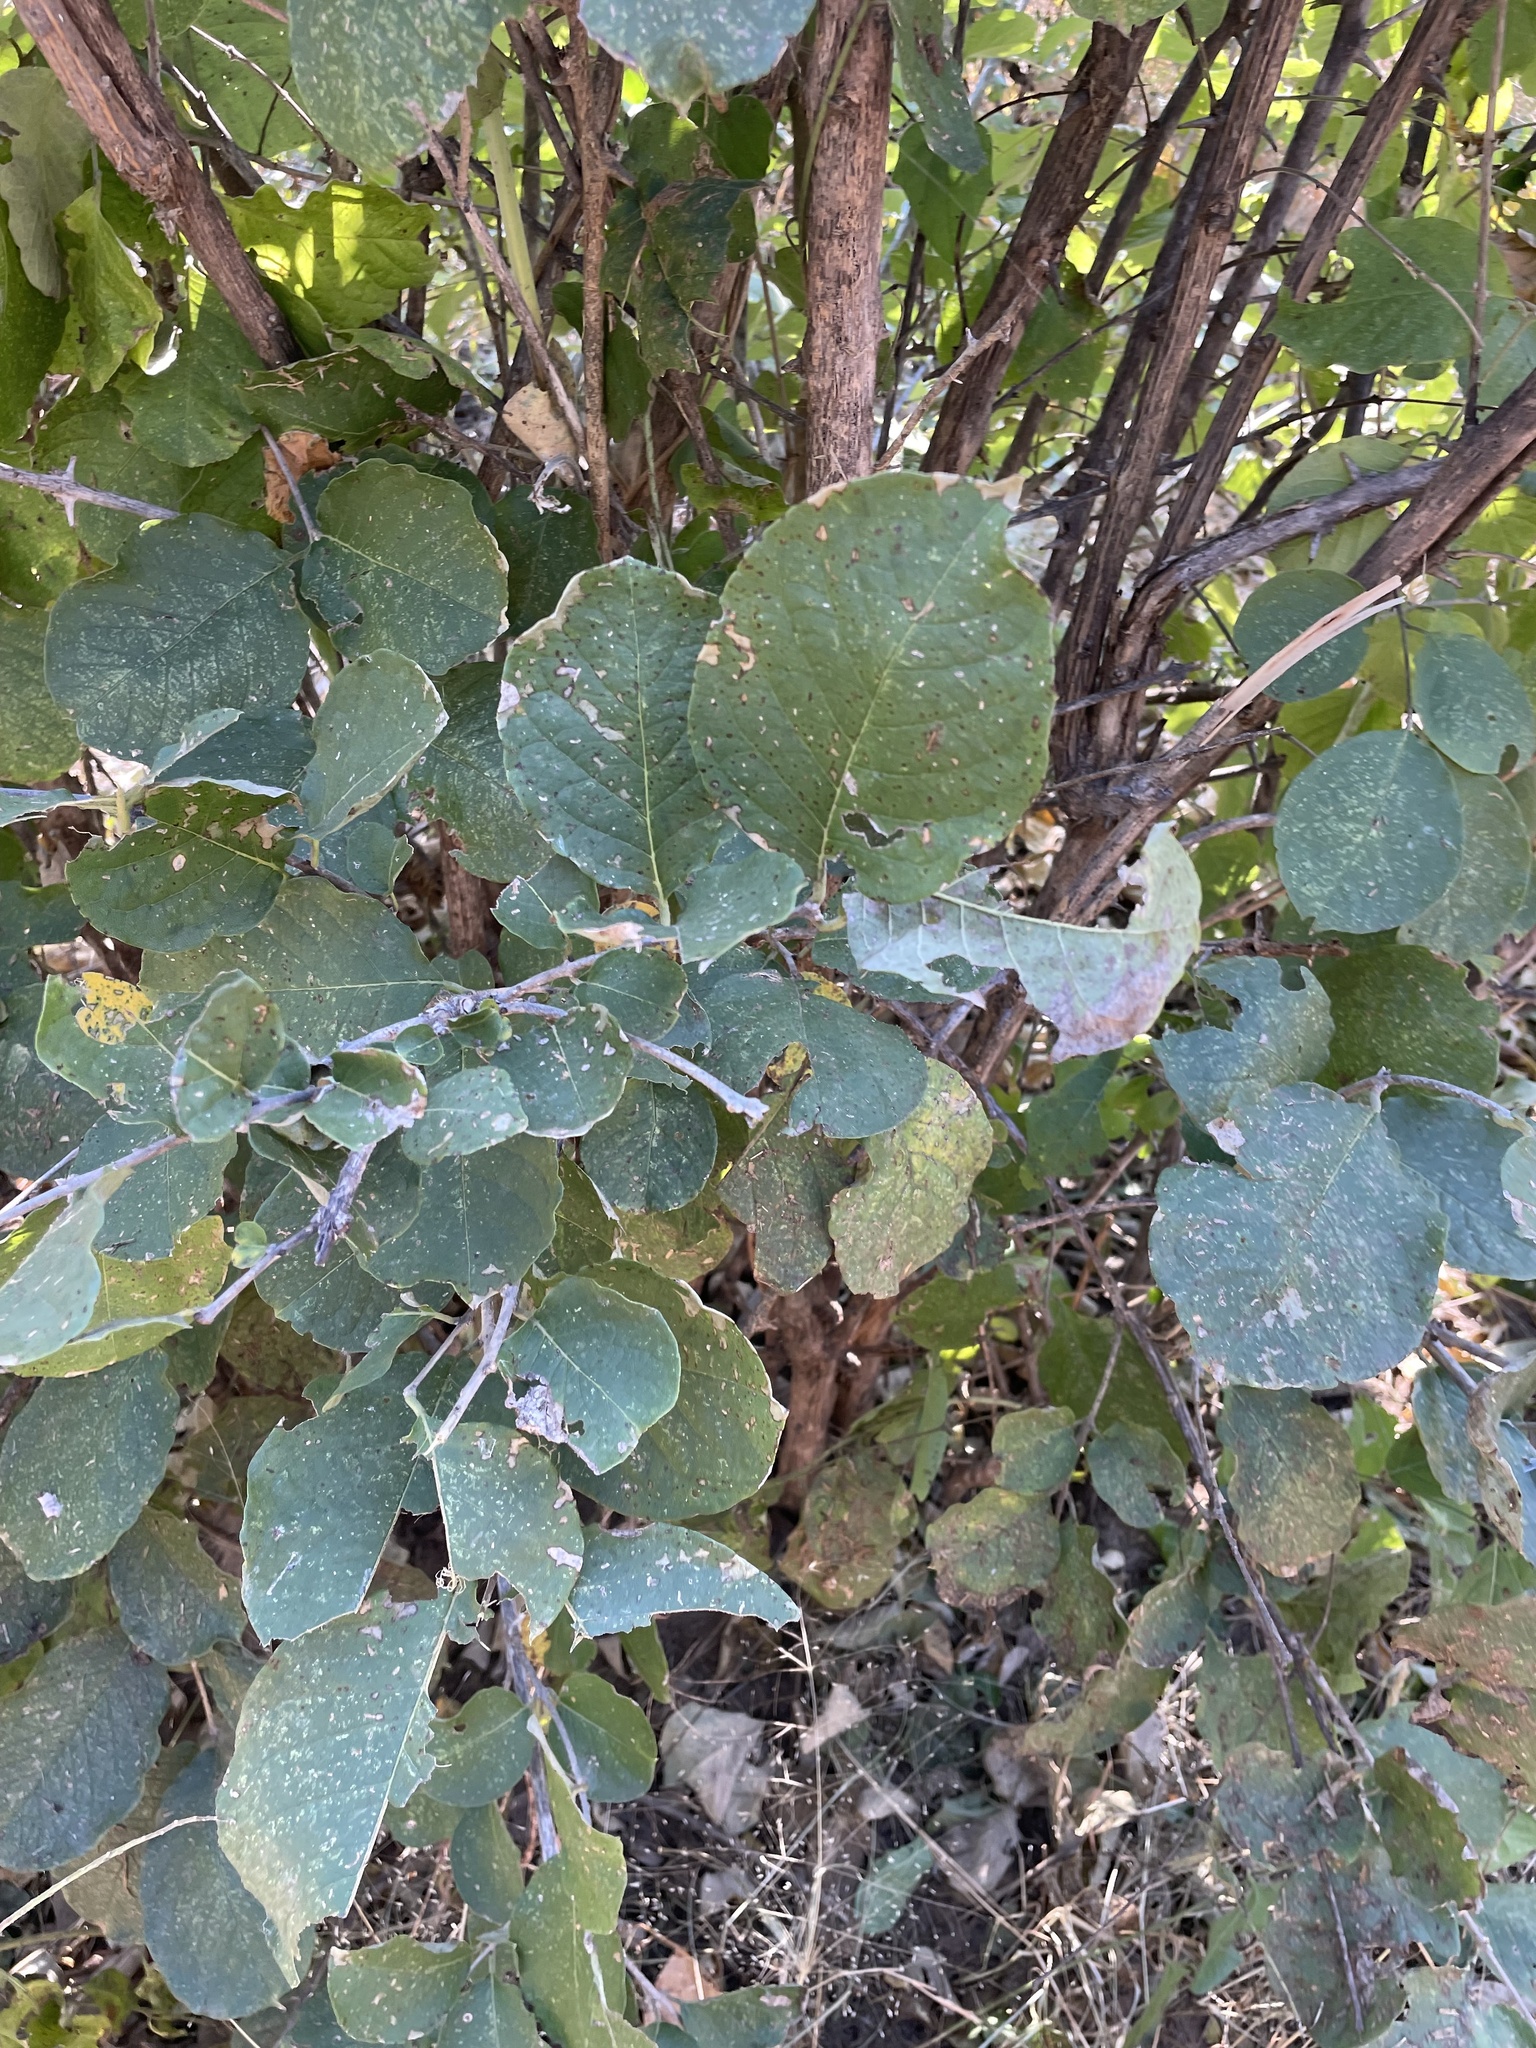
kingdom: Plantae
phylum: Tracheophyta
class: Magnoliopsida
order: Myrtales
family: Combretaceae
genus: Combretum
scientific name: Combretum mossambicense
